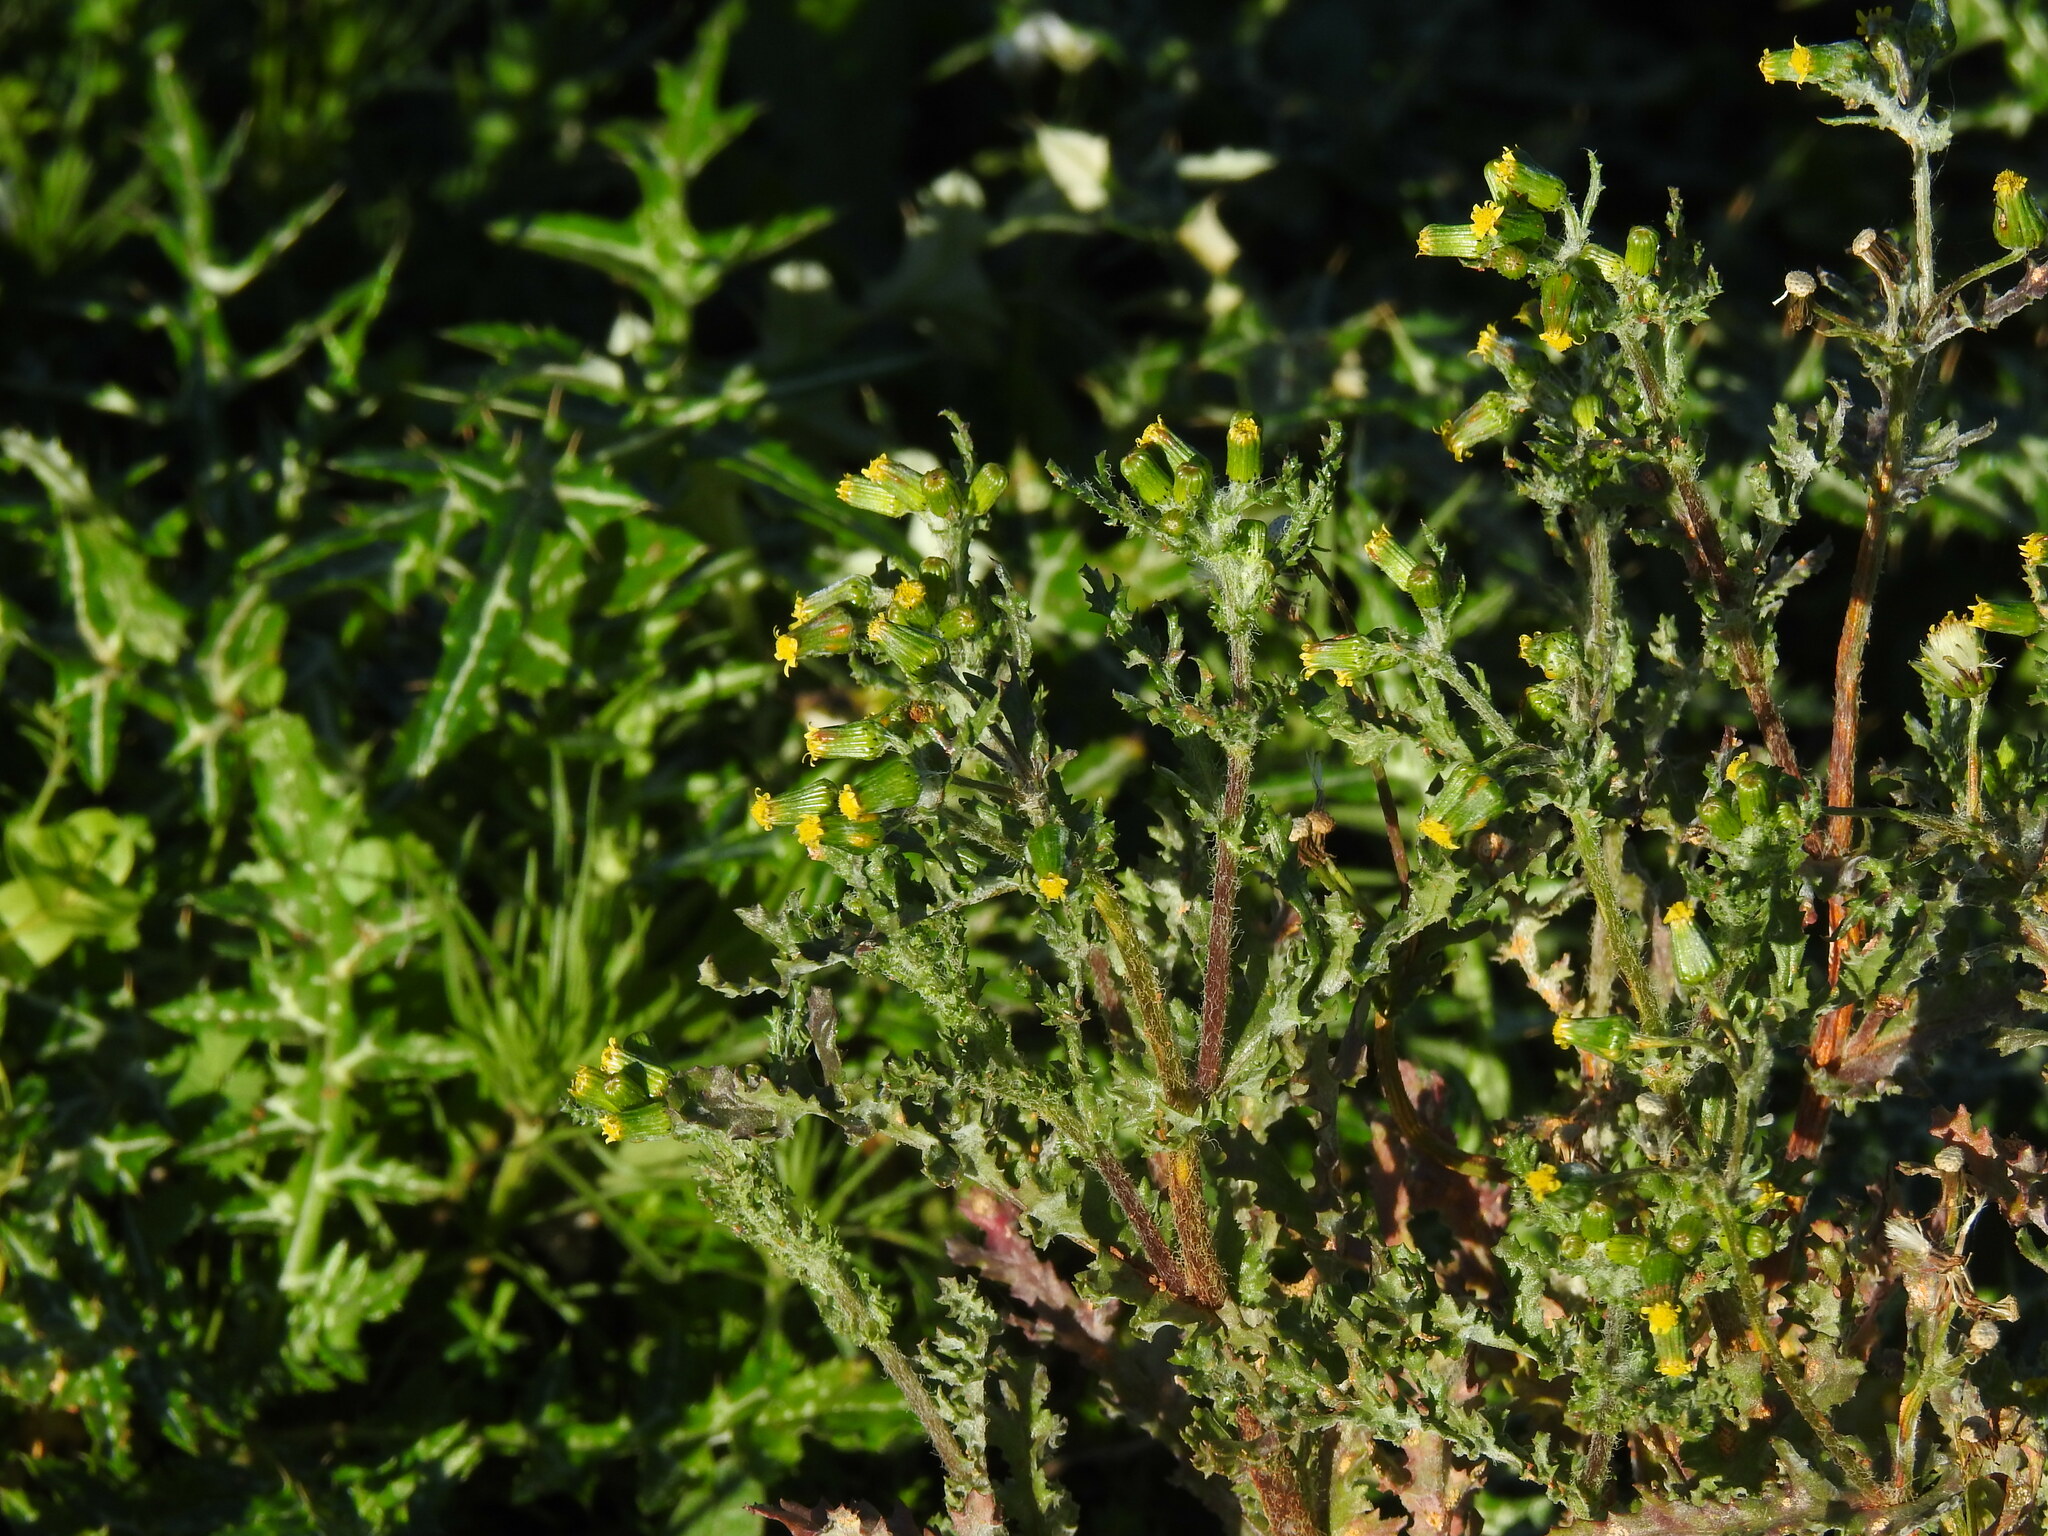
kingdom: Plantae
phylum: Tracheophyta
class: Magnoliopsida
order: Asterales
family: Asteraceae
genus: Senecio
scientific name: Senecio vulgaris
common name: Old-man-in-the-spring
